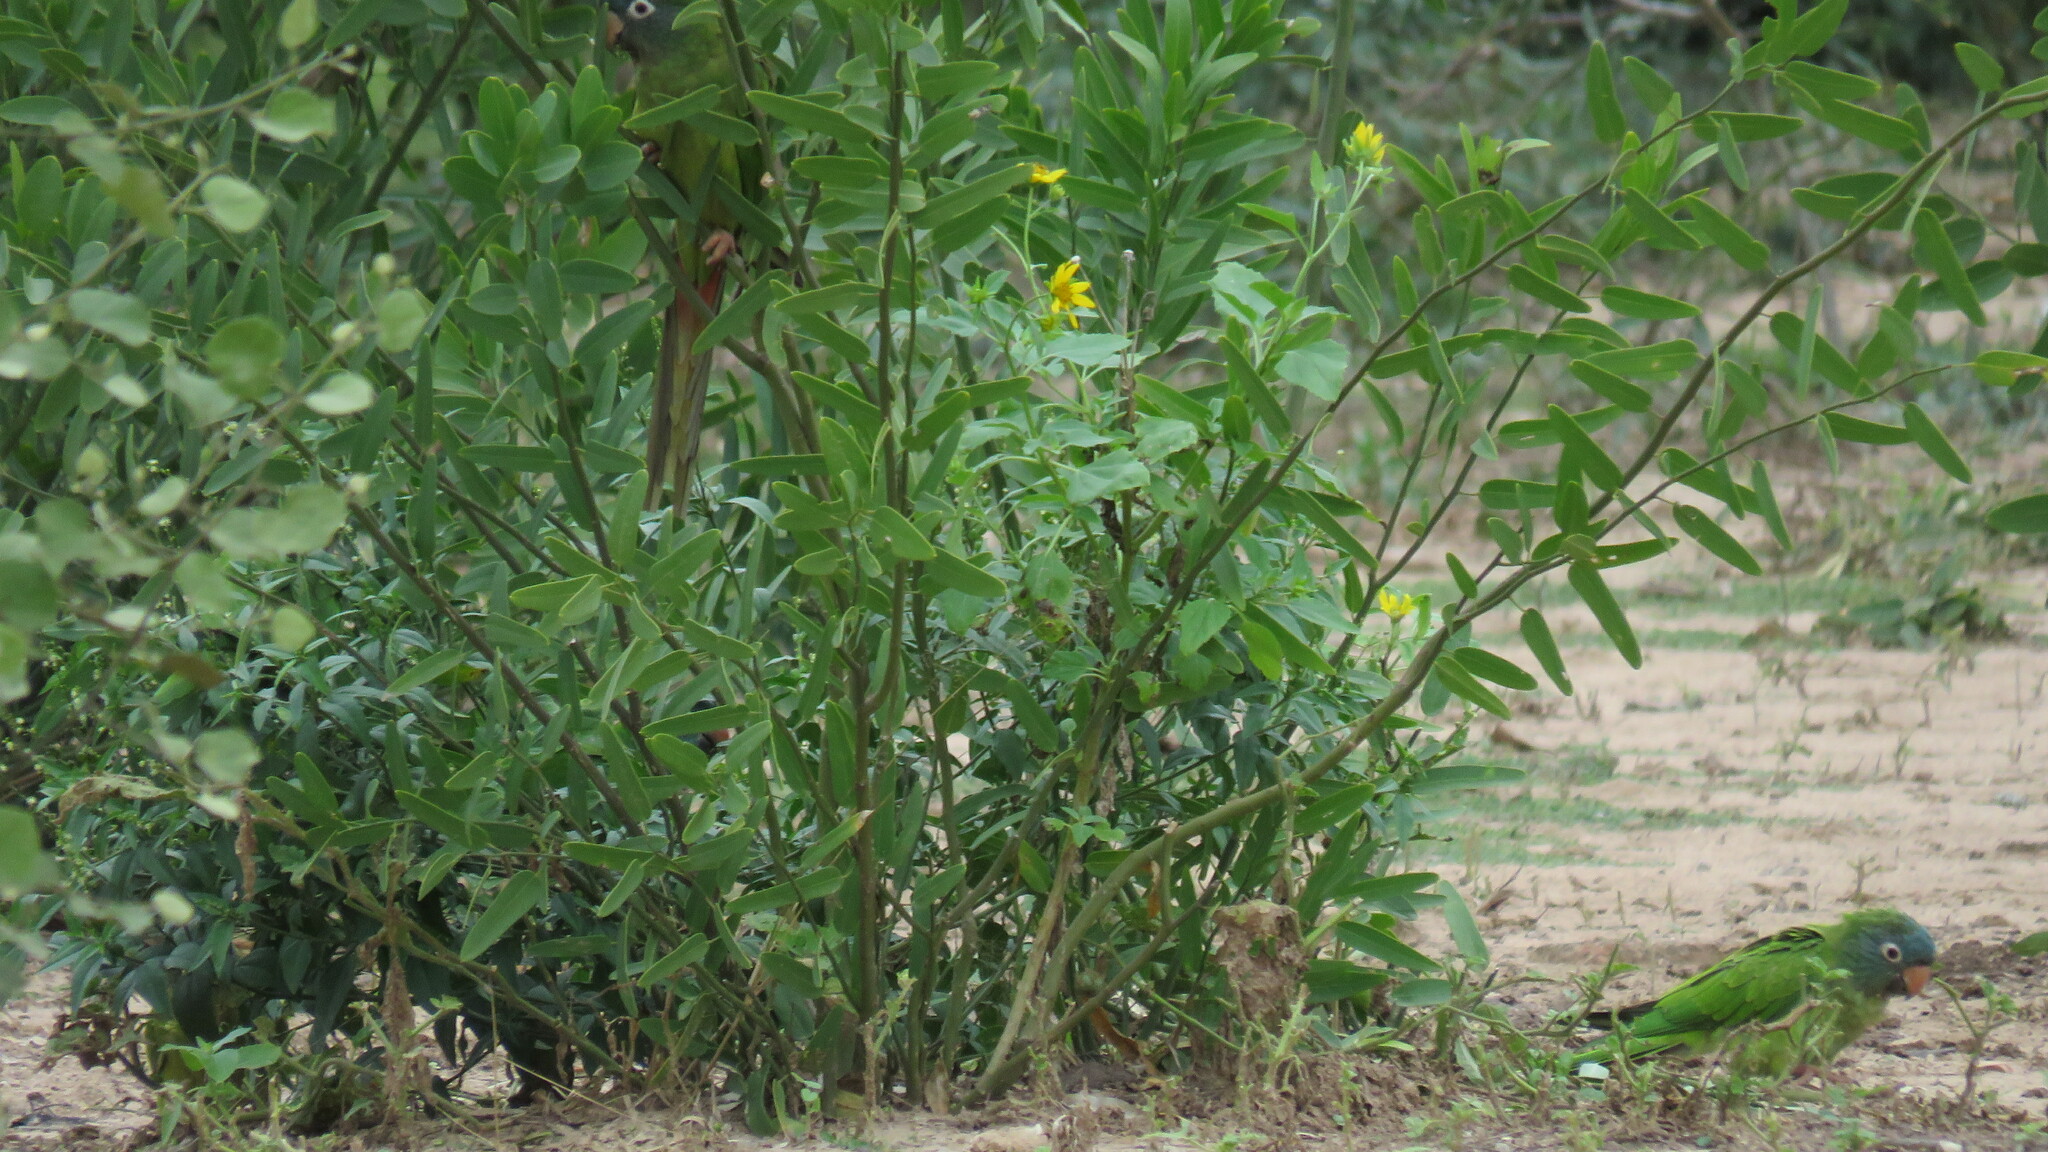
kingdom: Animalia
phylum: Chordata
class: Aves
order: Psittaciformes
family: Psittacidae
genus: Aratinga
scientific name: Aratinga acuticaudata
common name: Blue-crowned parakeet
